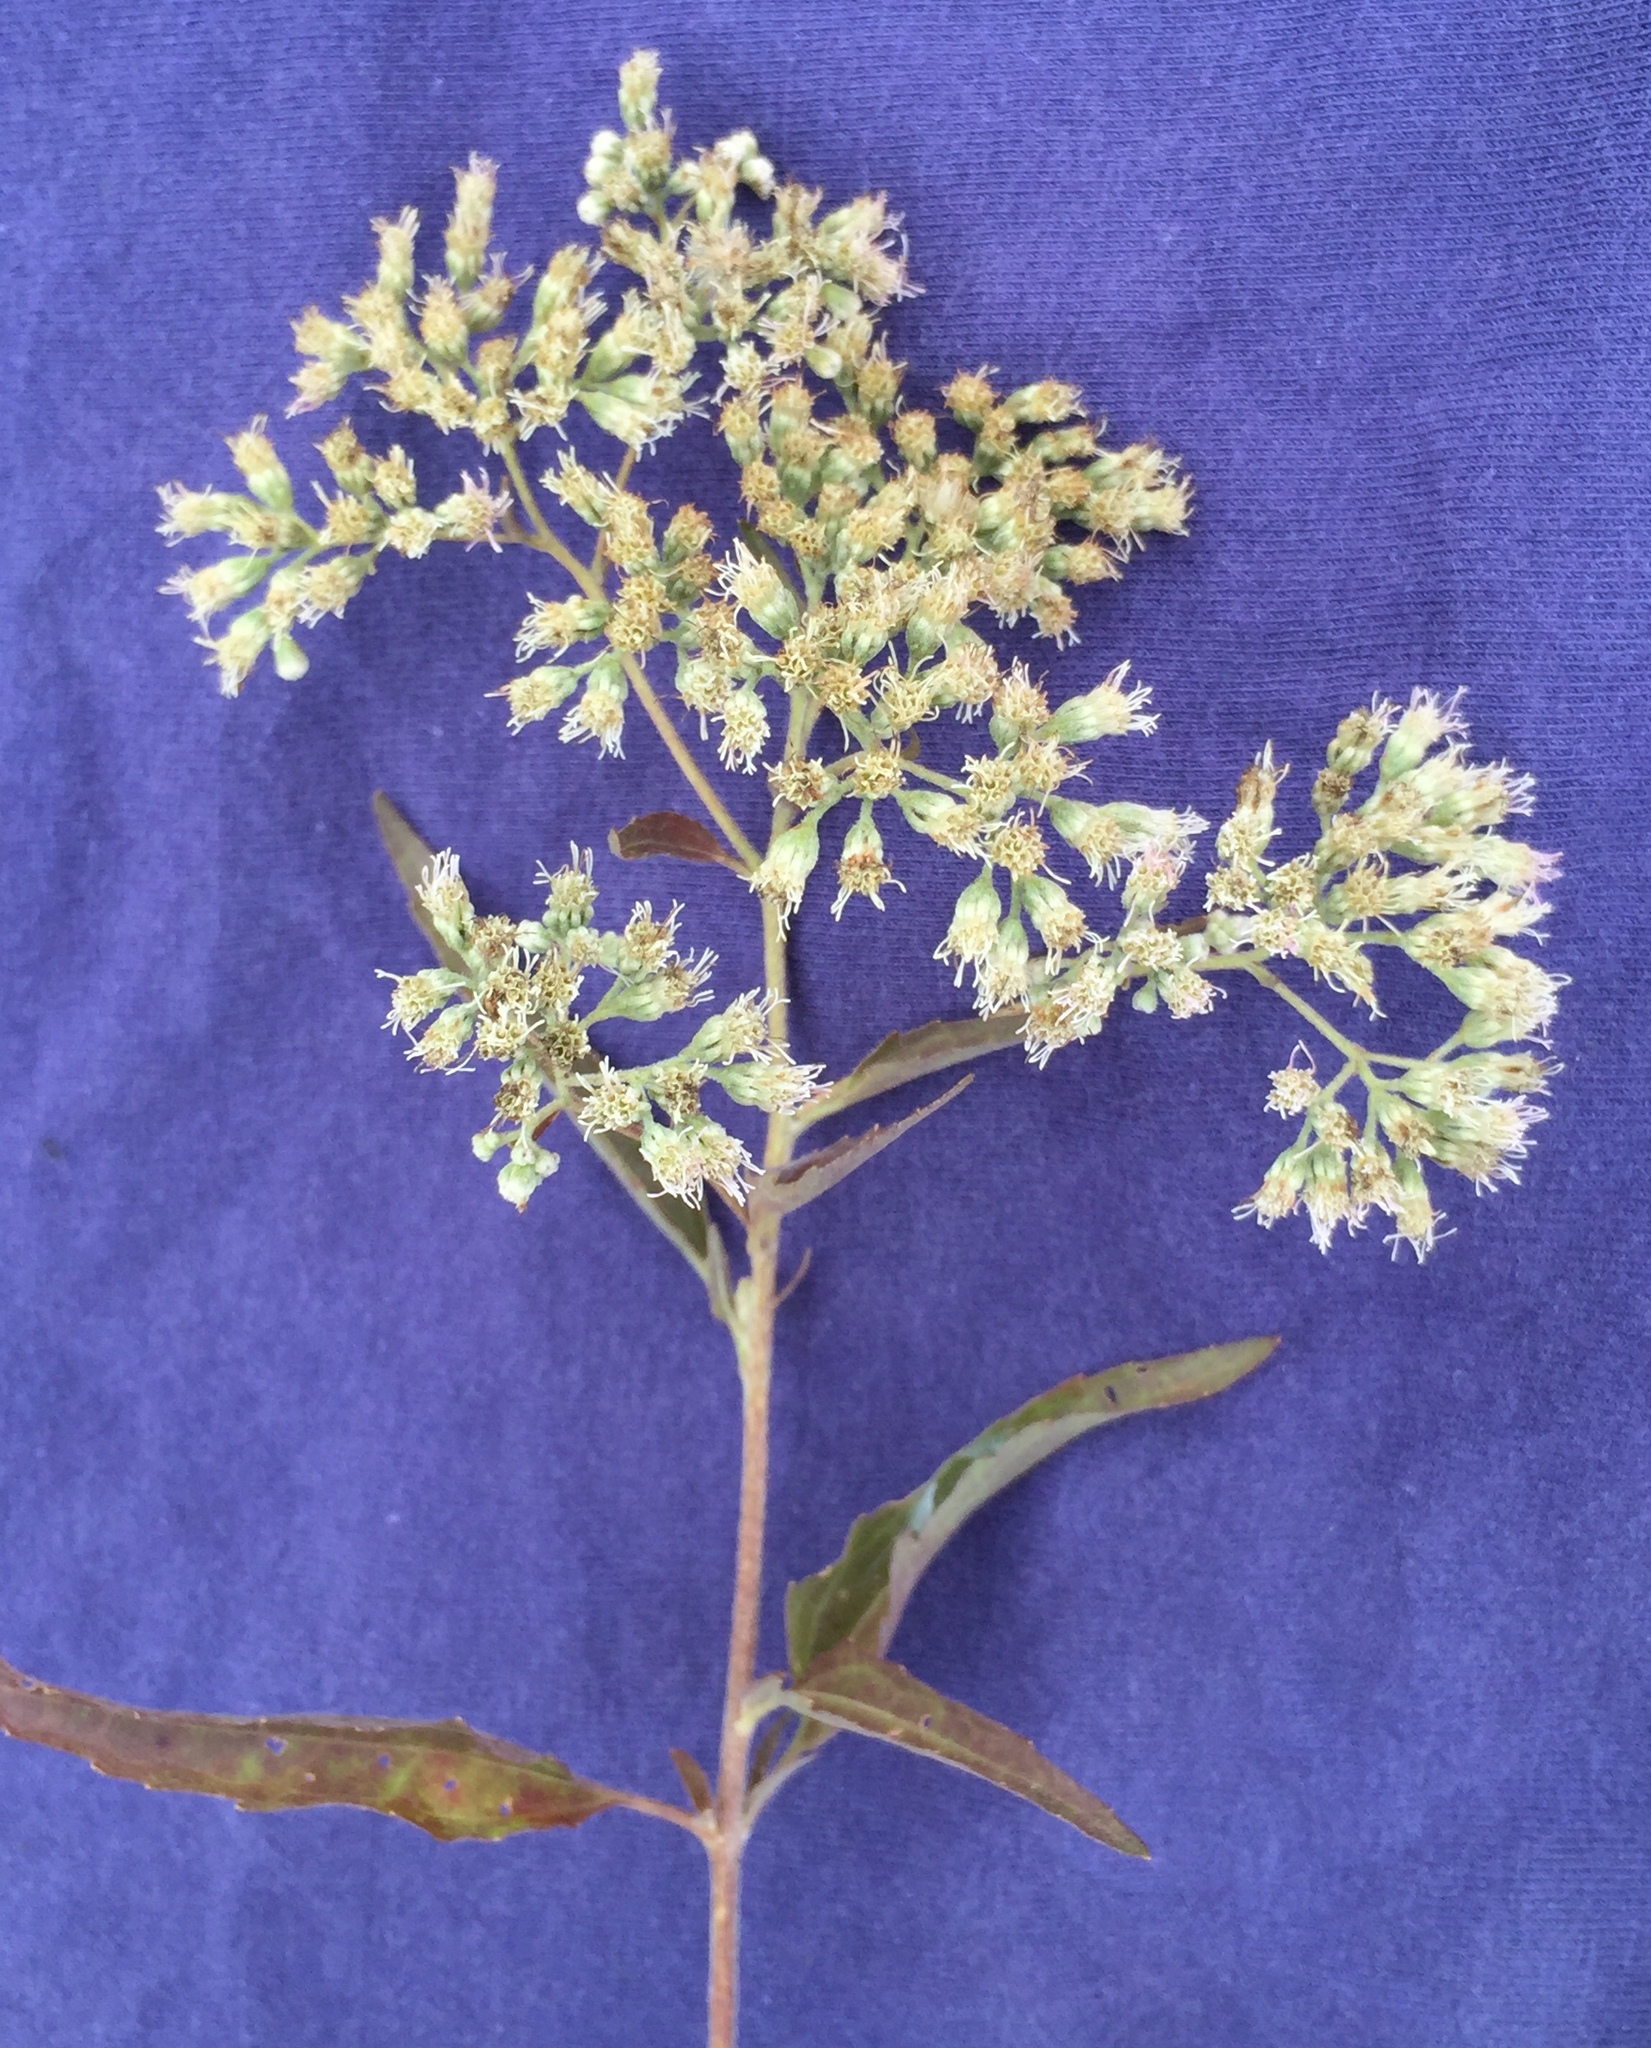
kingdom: Plantae
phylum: Tracheophyta
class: Magnoliopsida
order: Asterales
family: Asteraceae
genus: Eupatorium
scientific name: Eupatorium serotinum
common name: Late boneset
